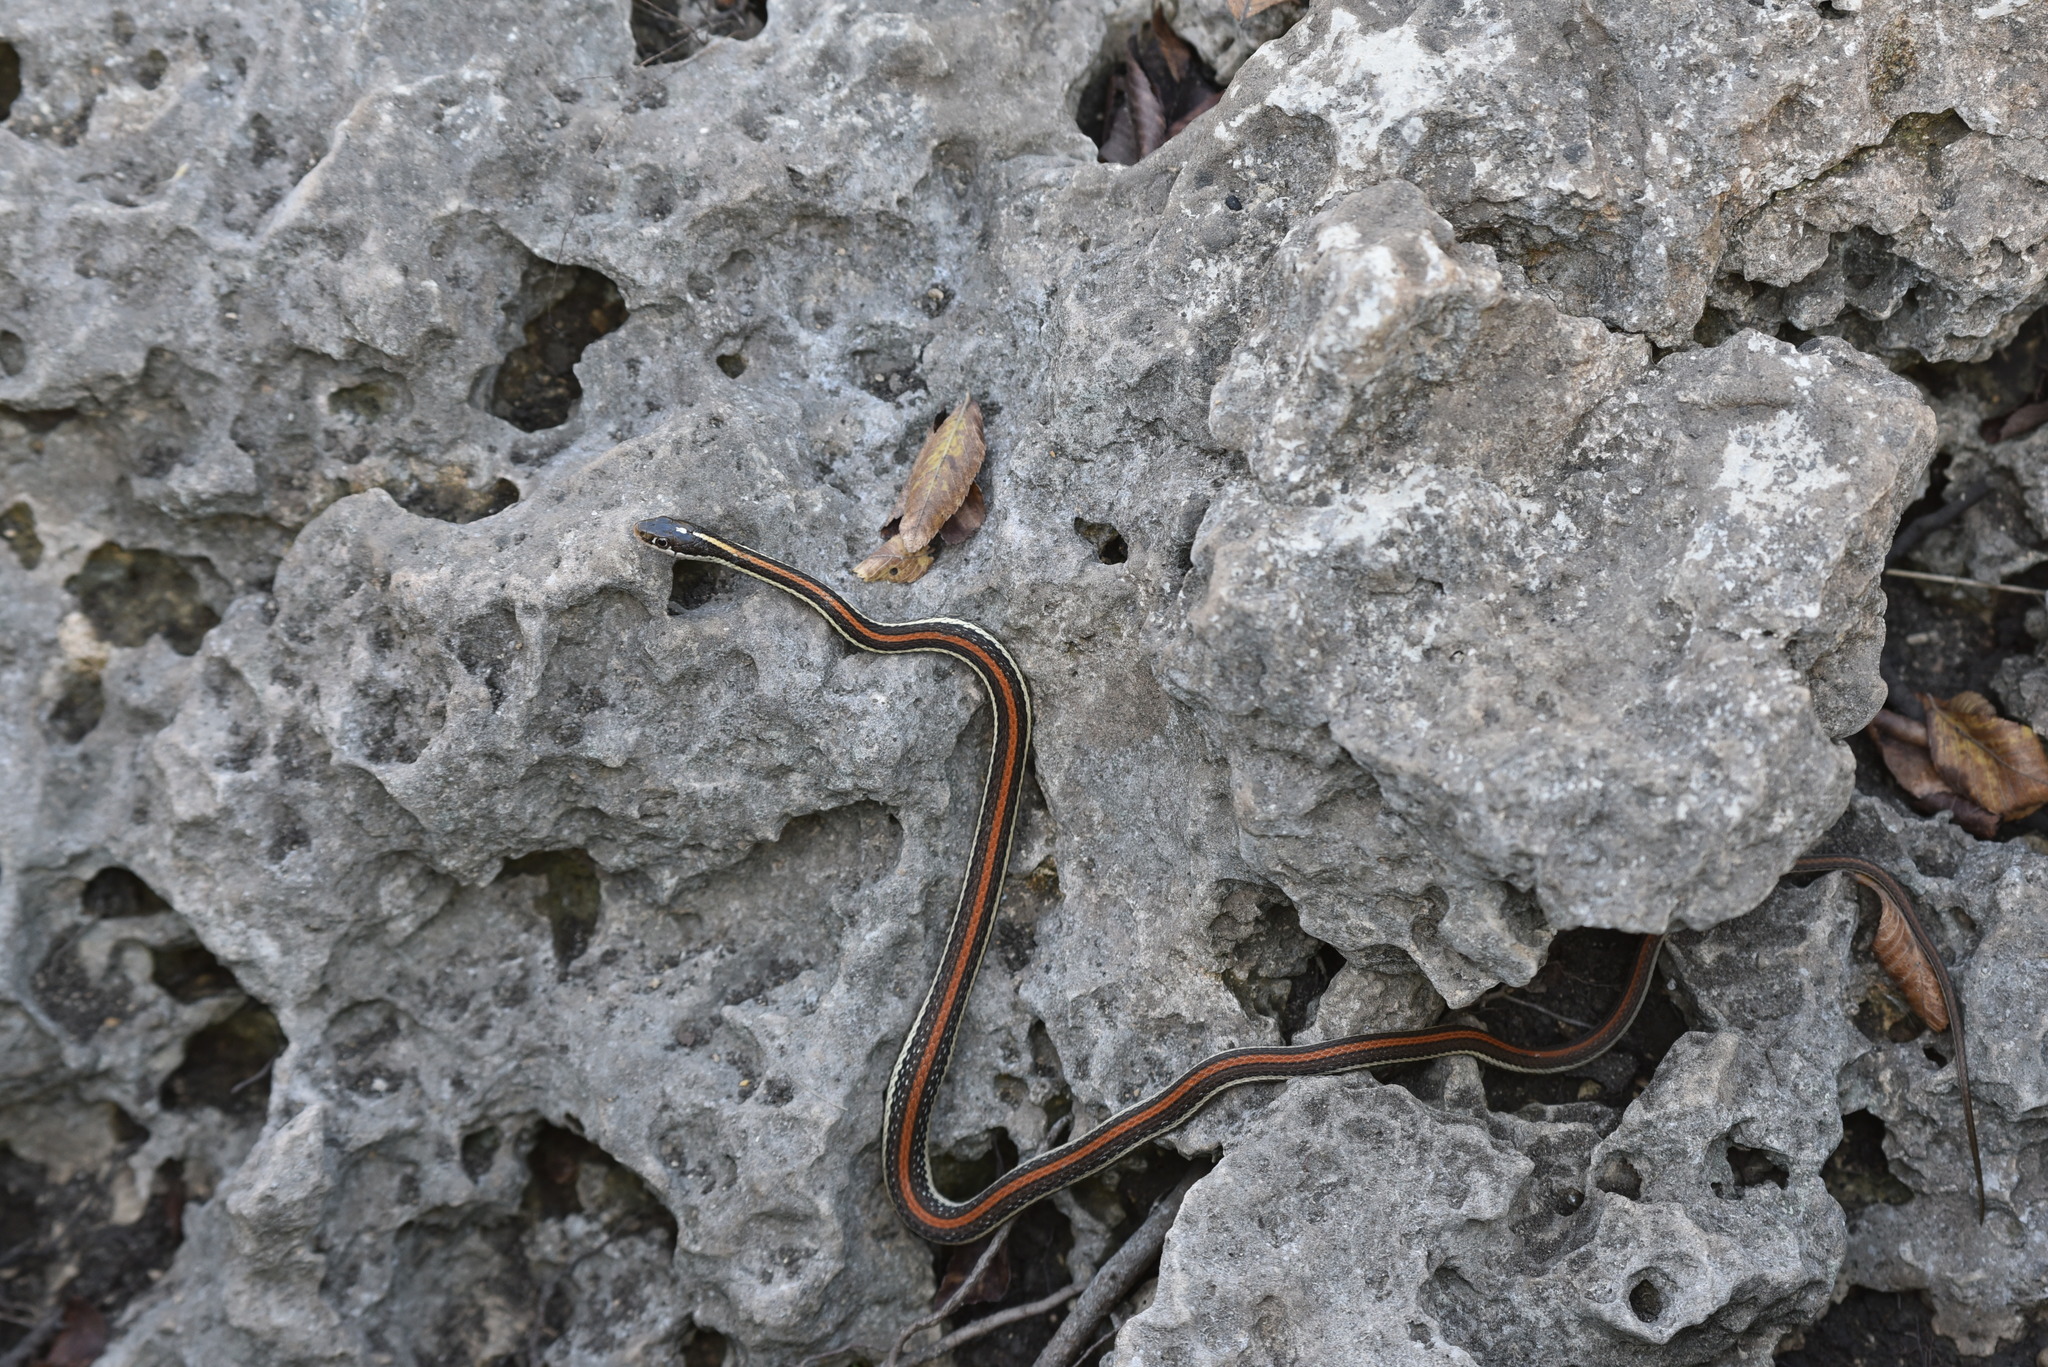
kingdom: Animalia
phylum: Chordata
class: Squamata
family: Colubridae
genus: Thamnophis
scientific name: Thamnophis proximus
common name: Western ribbon snake
